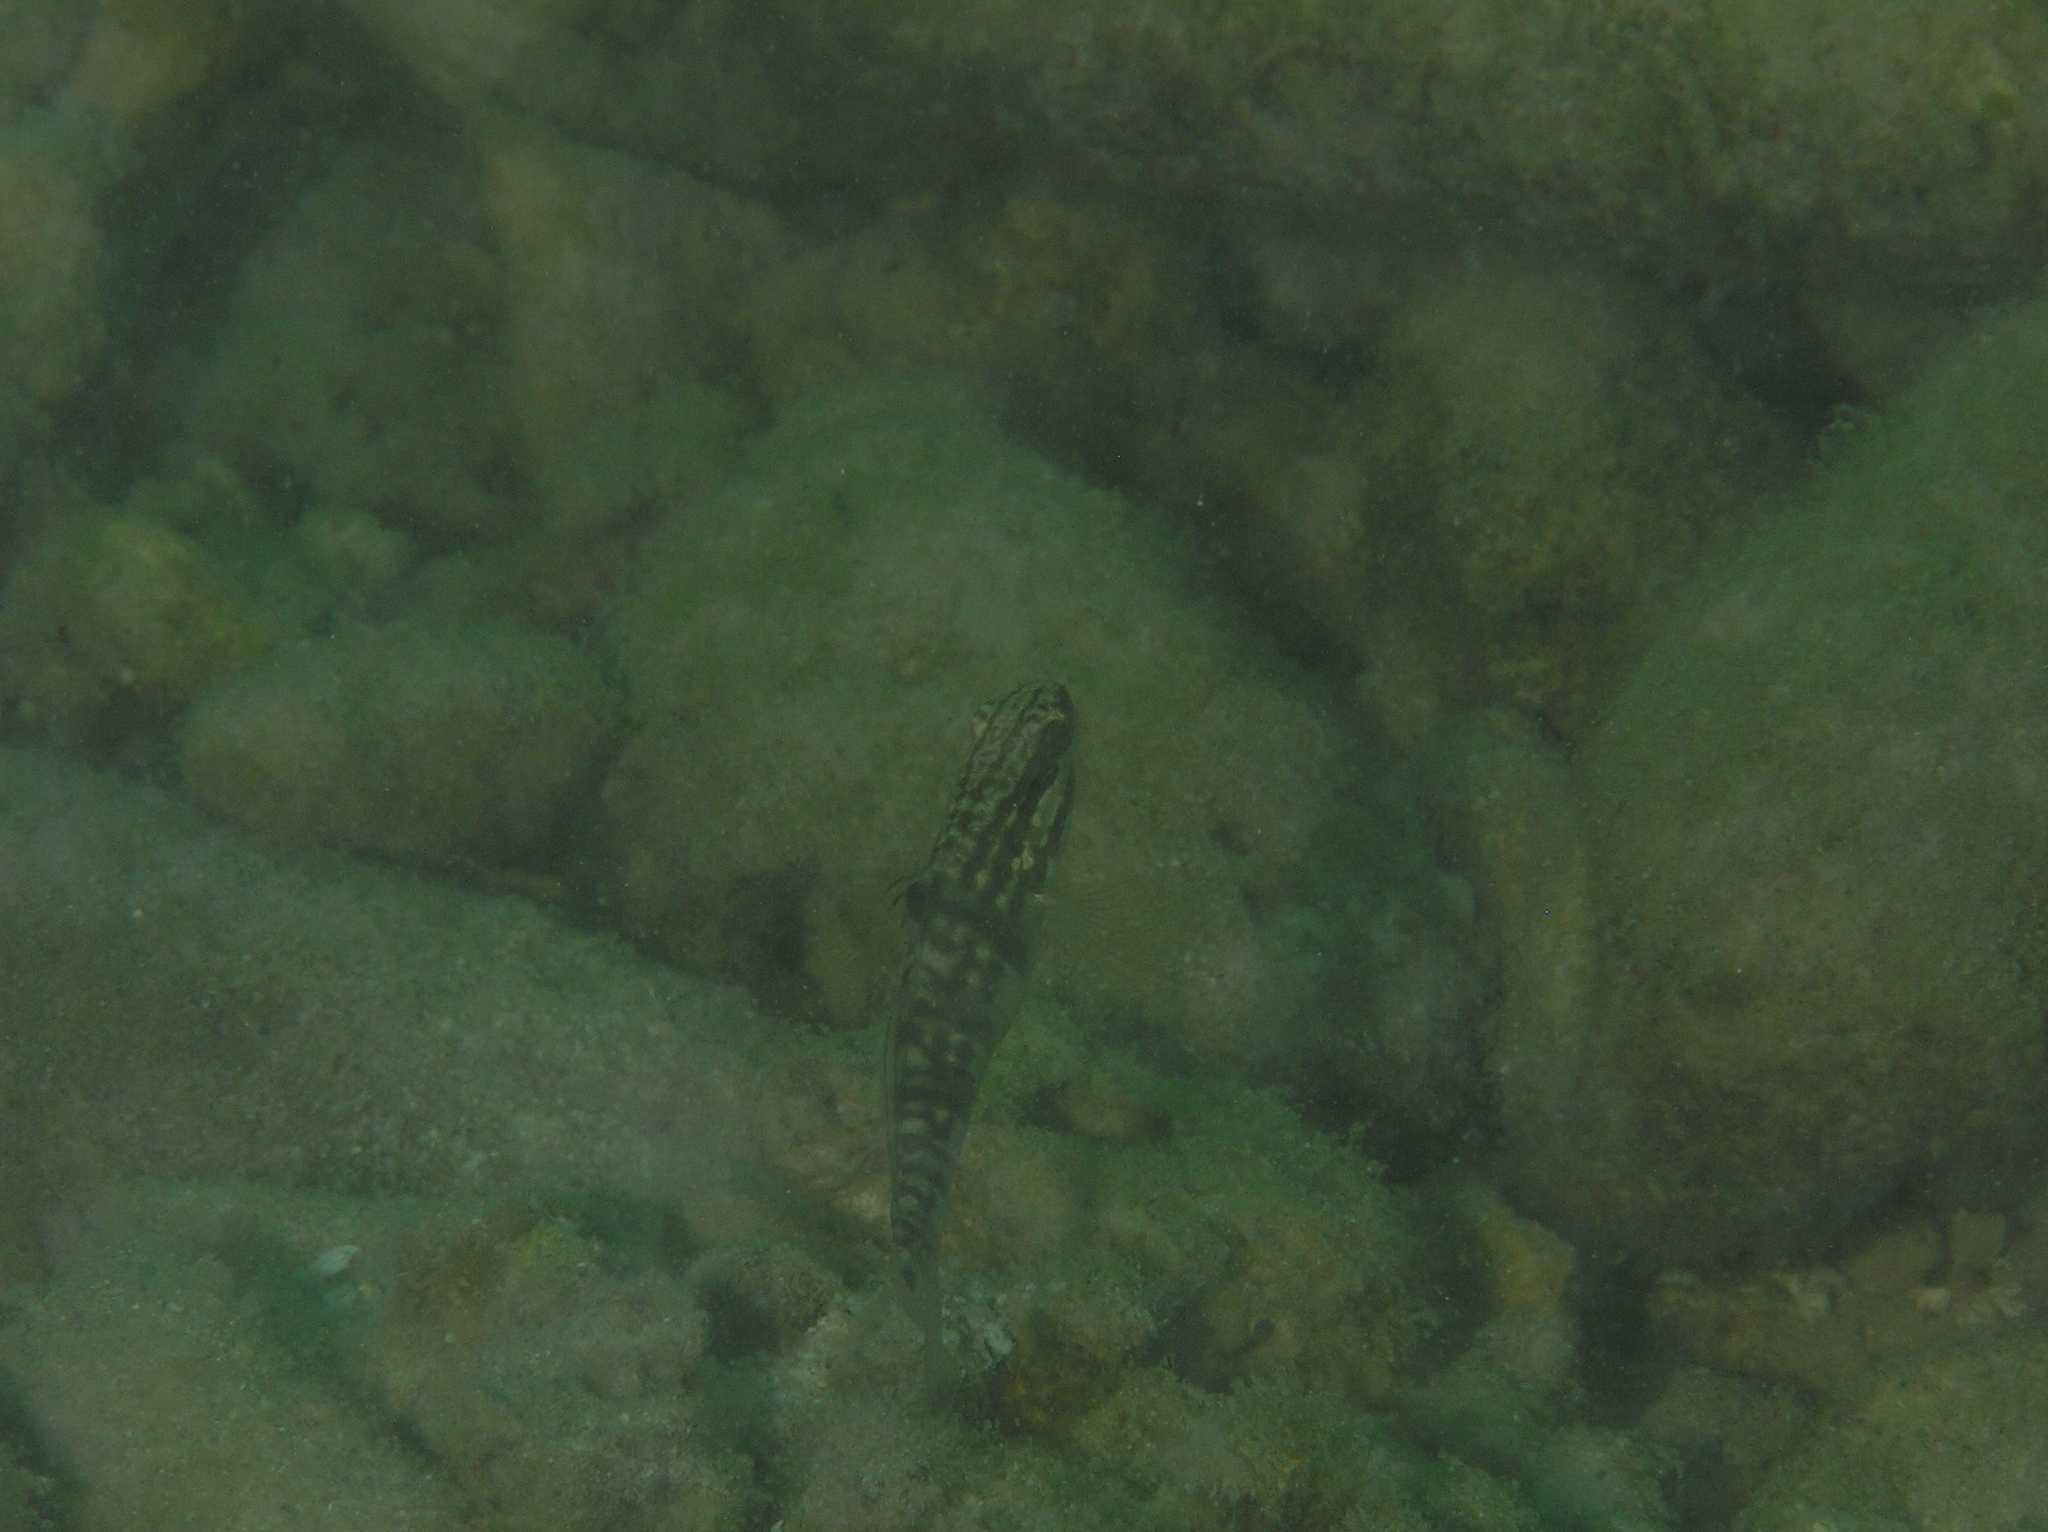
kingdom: Animalia
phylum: Chordata
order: Perciformes
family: Gobiidae
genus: Amblygobius
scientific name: Amblygobius phalaena
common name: Banded goby
